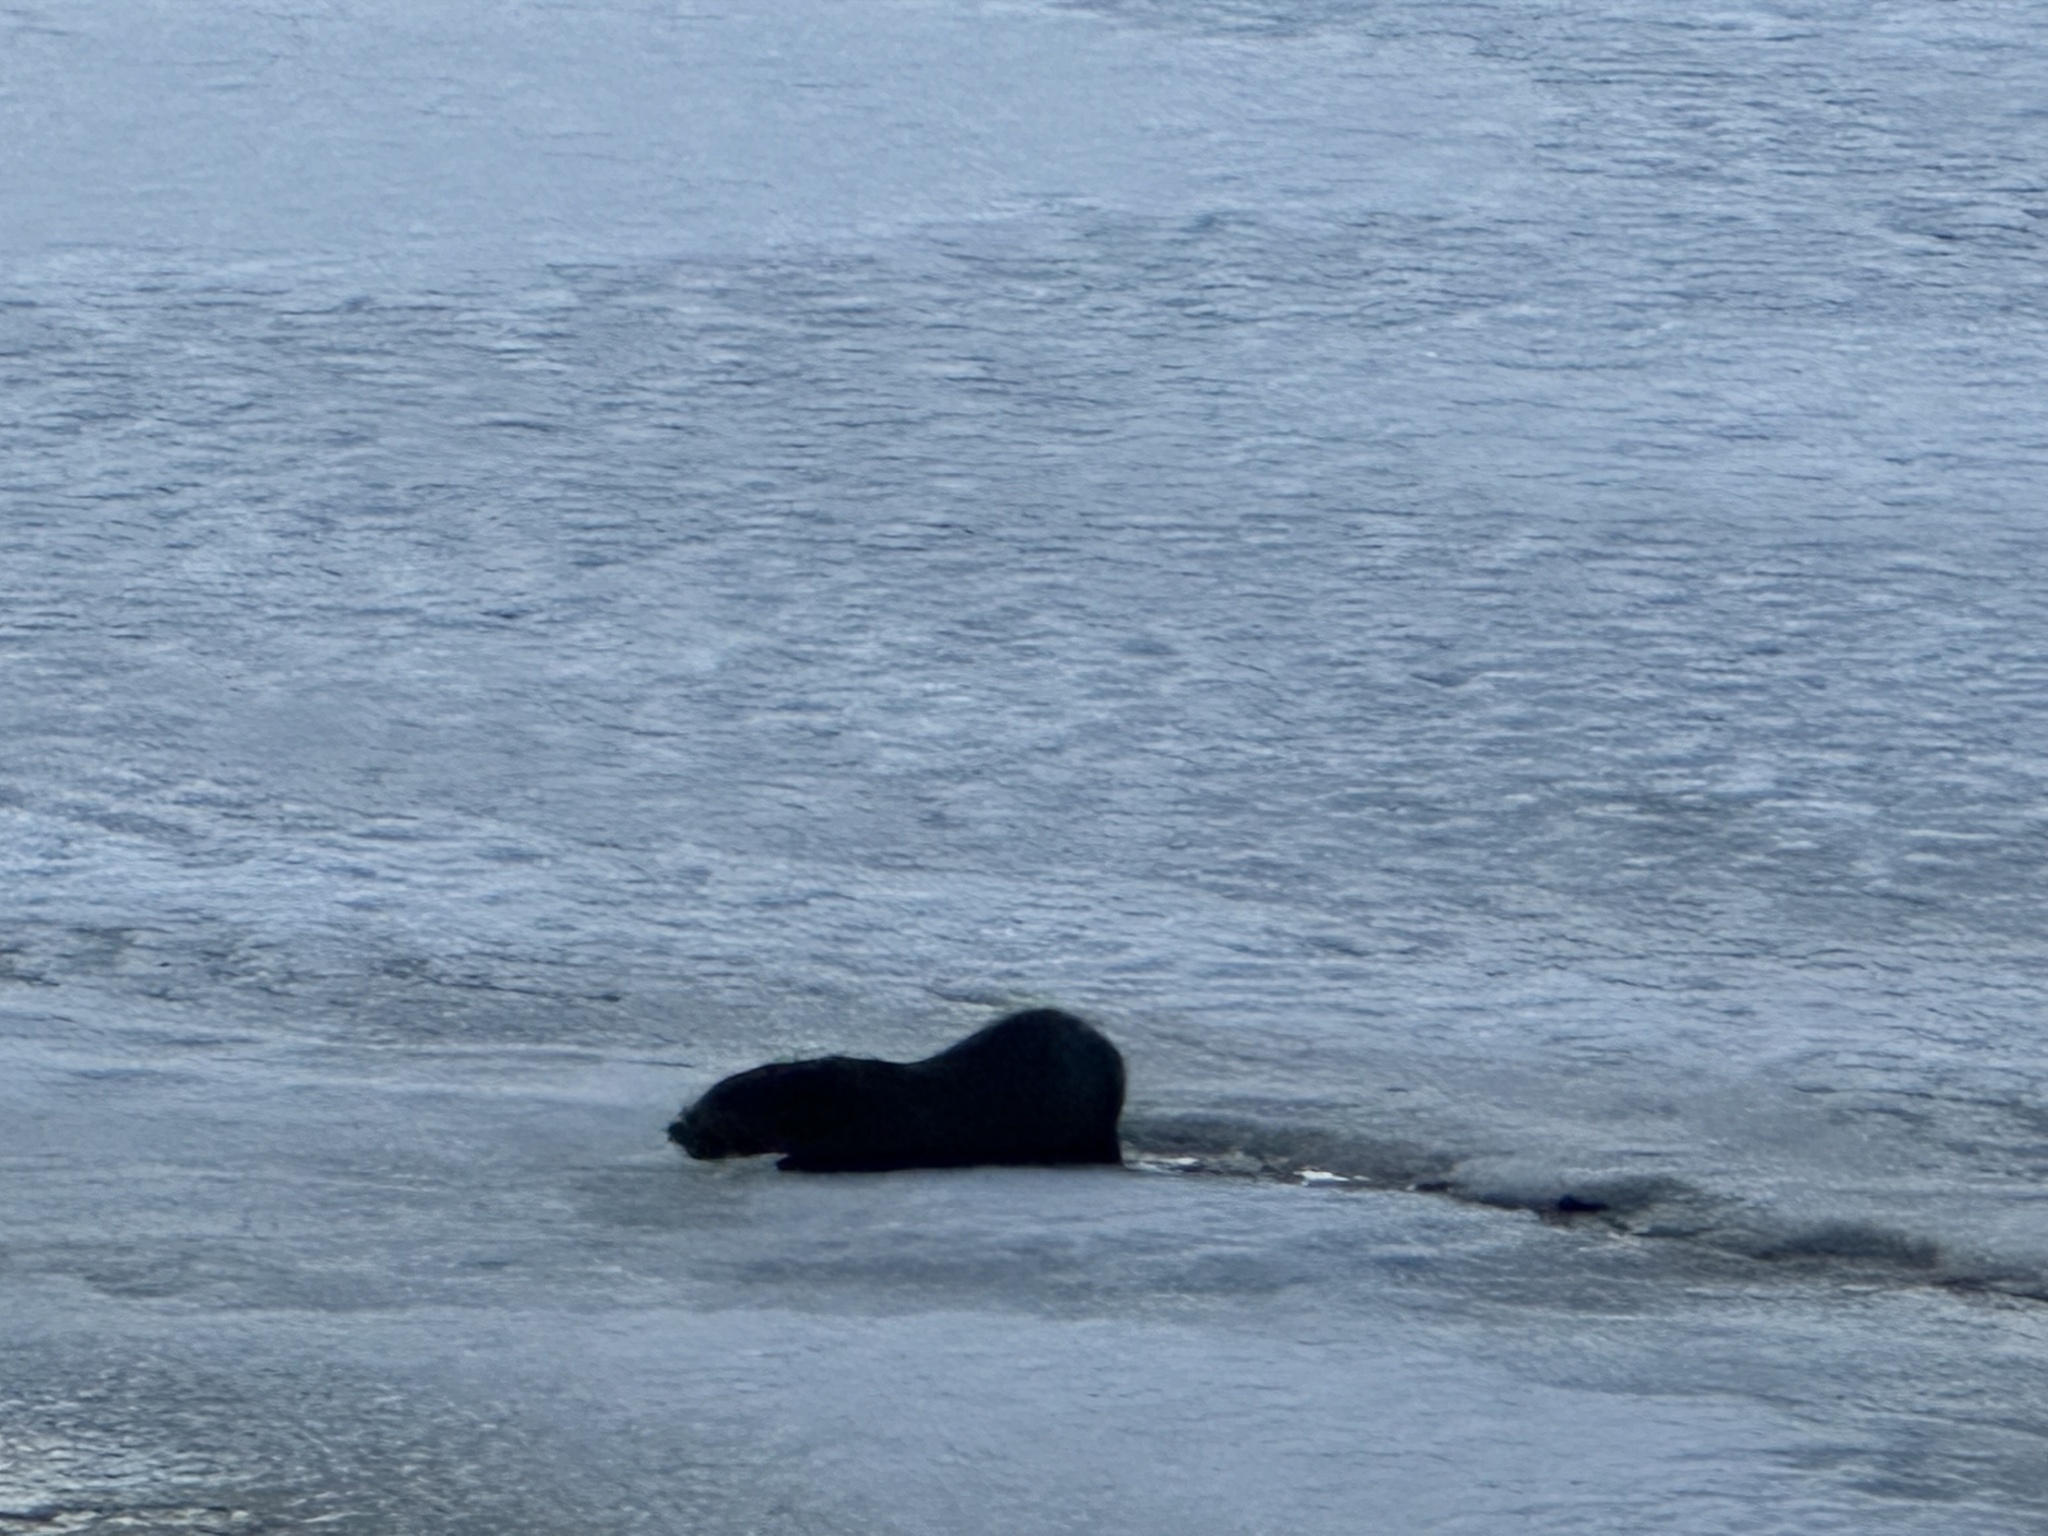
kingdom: Animalia
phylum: Chordata
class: Mammalia
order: Carnivora
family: Mustelidae
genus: Lontra
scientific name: Lontra canadensis
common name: North american river otter
